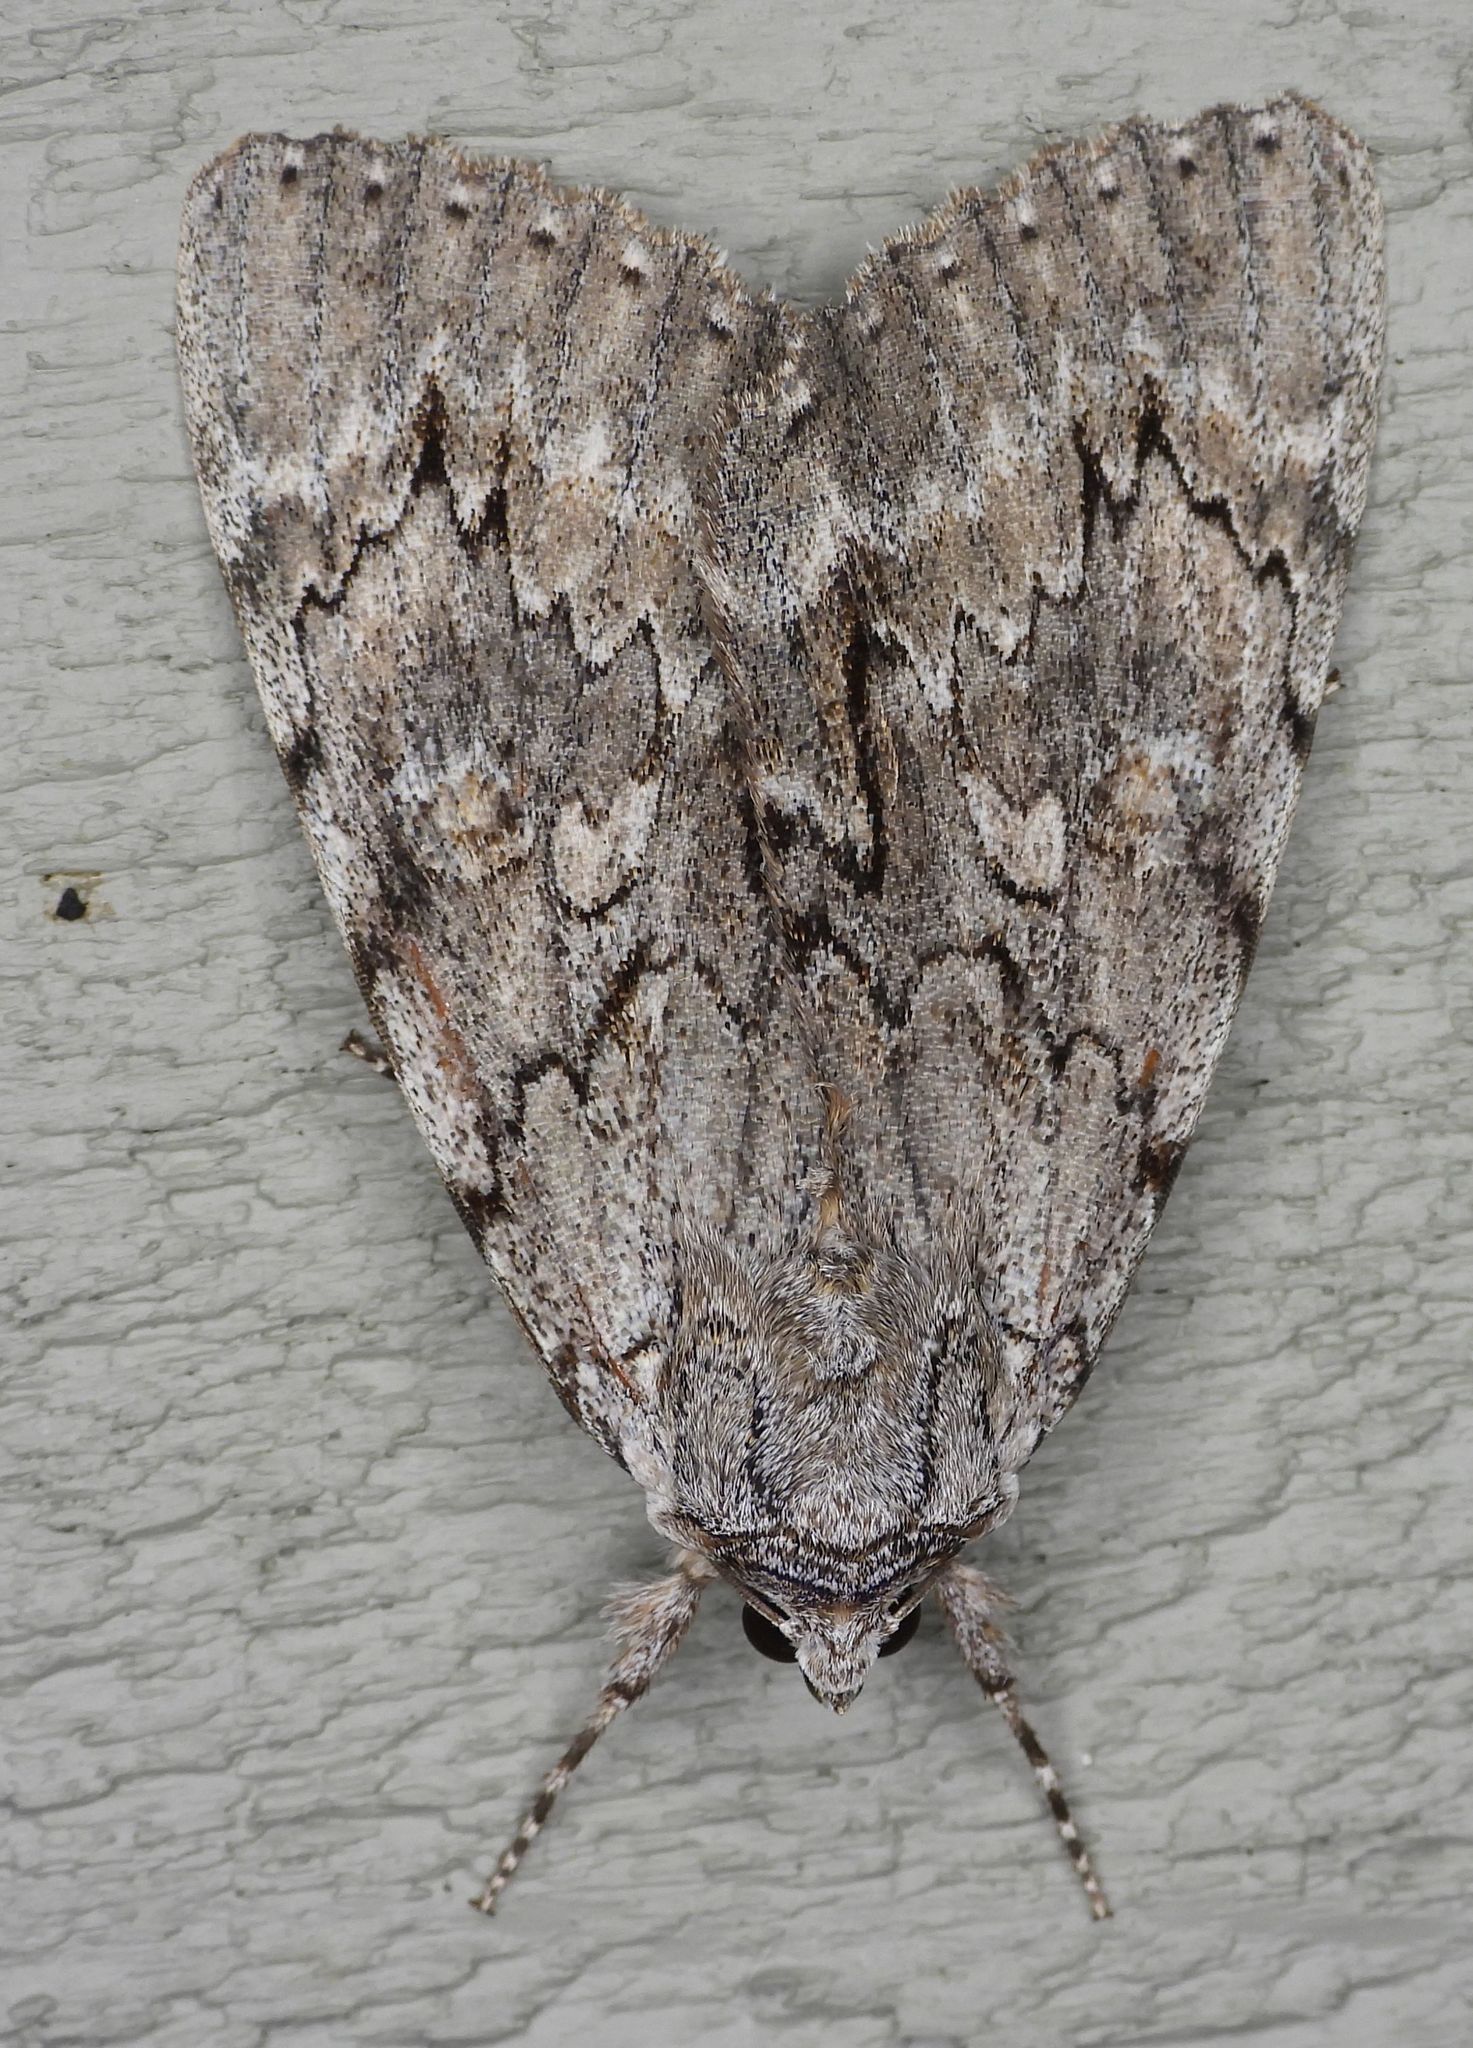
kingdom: Animalia
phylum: Arthropoda
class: Insecta
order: Lepidoptera
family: Erebidae
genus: Catocala
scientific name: Catocala habilis
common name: Habilis underwing
